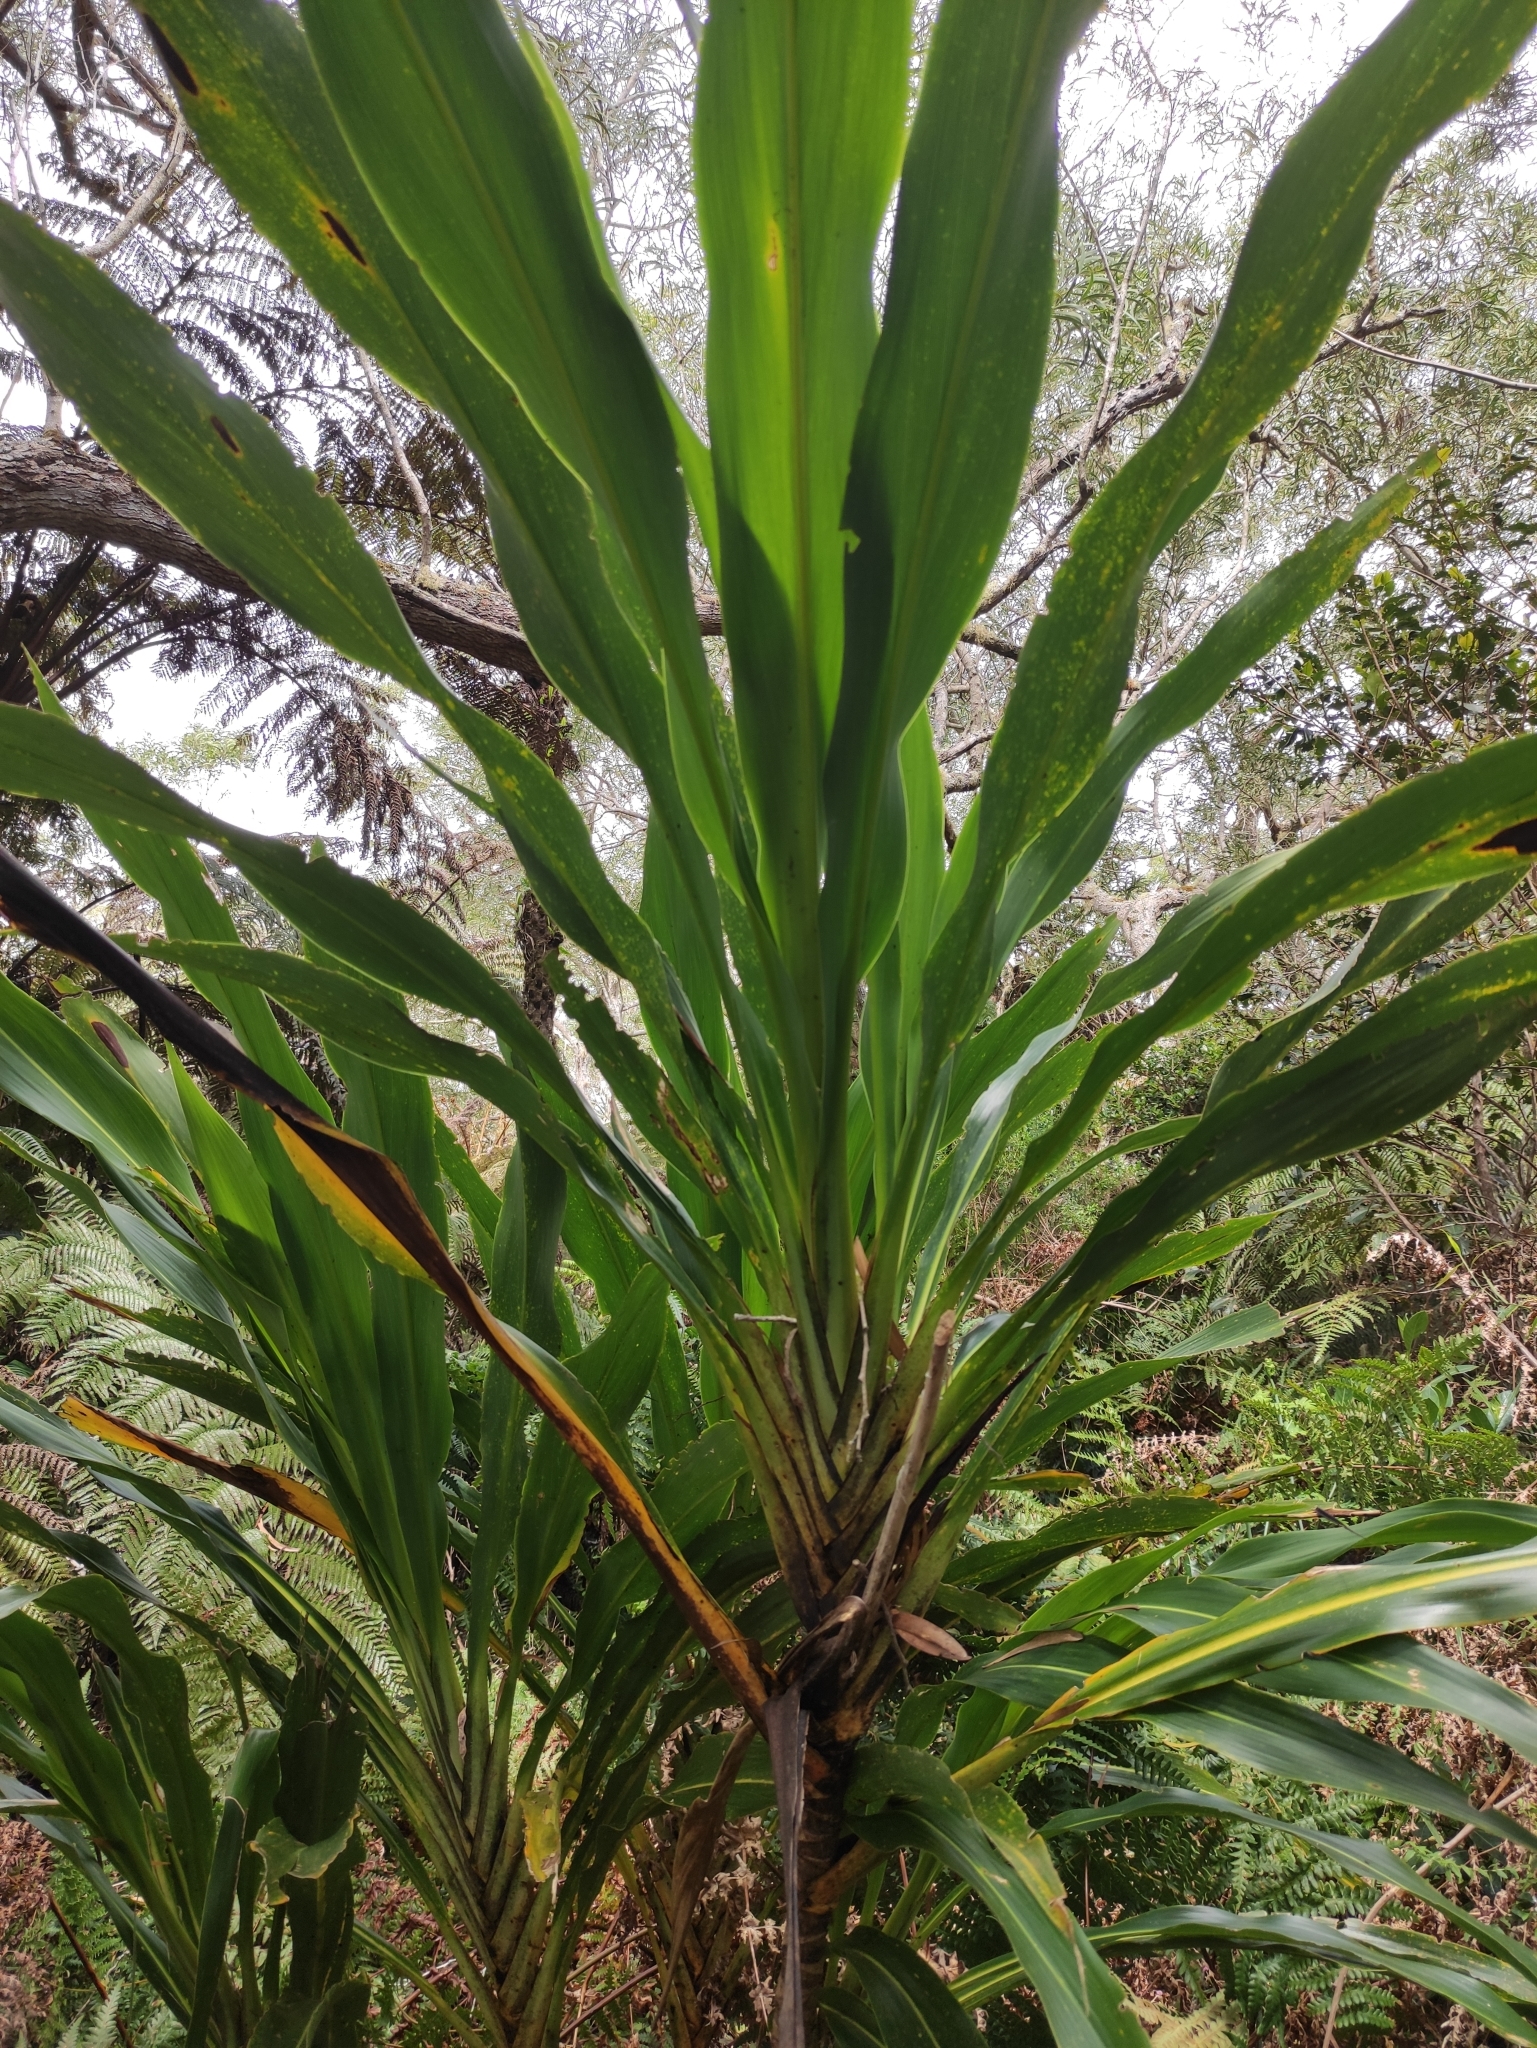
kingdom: Plantae
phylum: Tracheophyta
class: Liliopsida
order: Asparagales
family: Asparagaceae
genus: Cordyline
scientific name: Cordyline mauritiana
